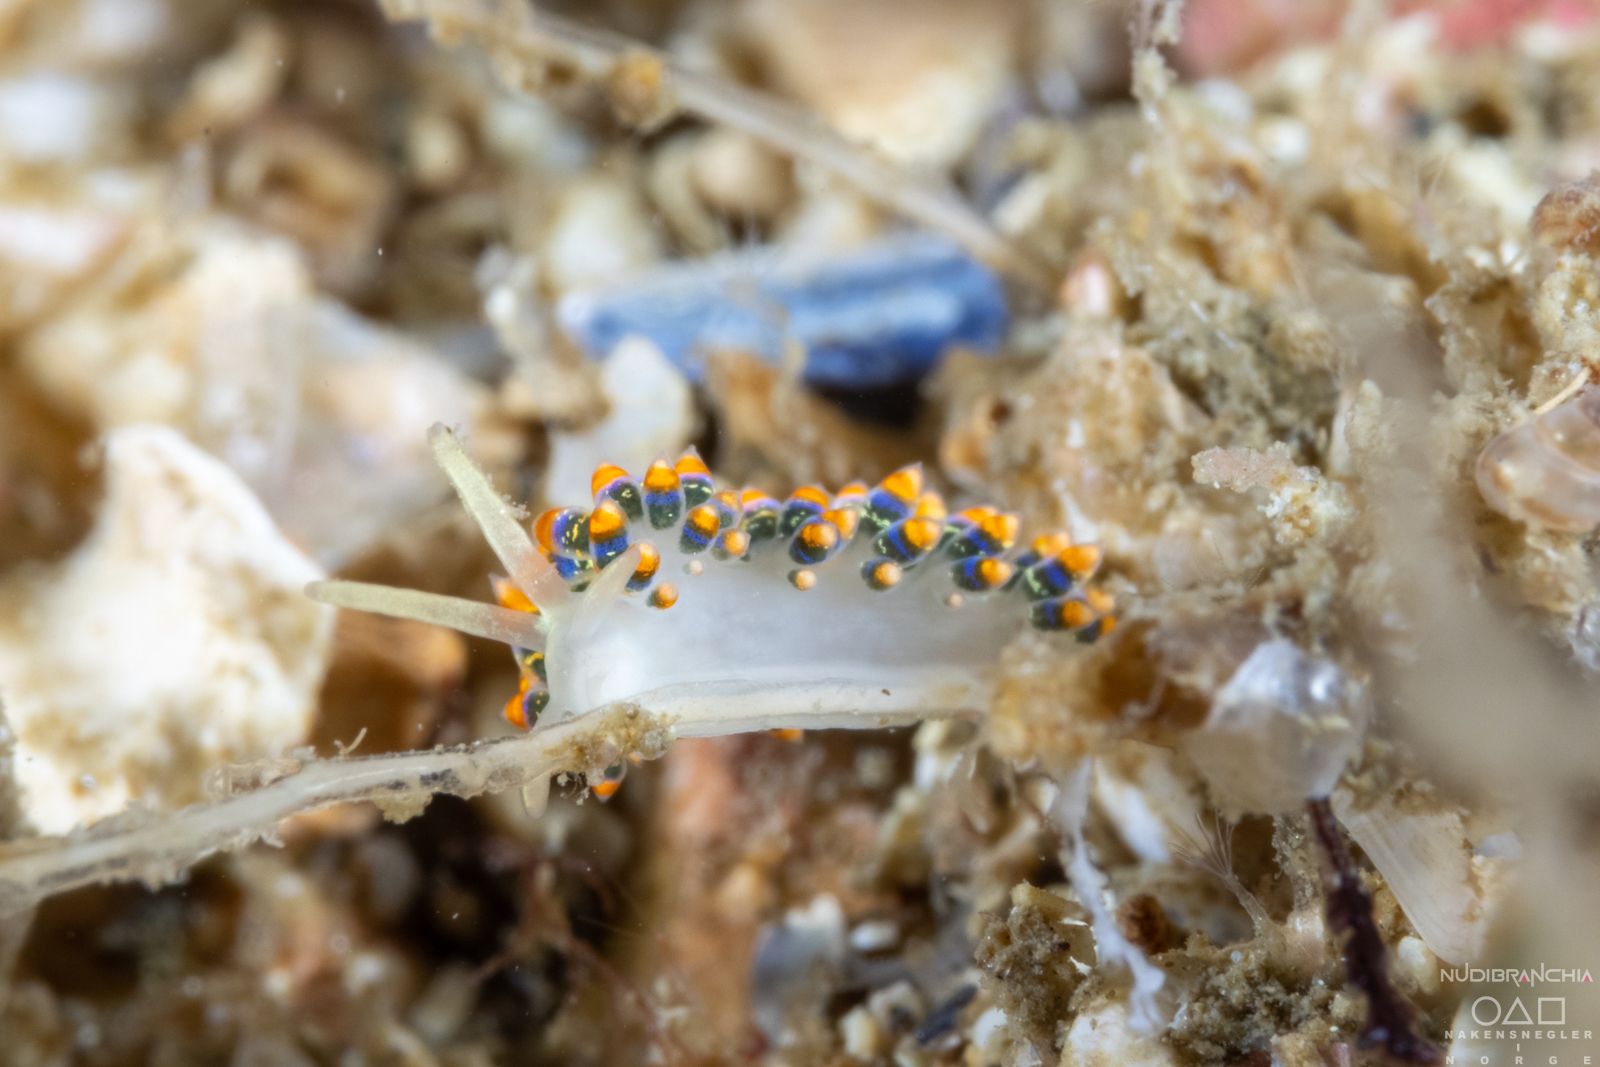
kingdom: Animalia
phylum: Mollusca
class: Gastropoda
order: Nudibranchia
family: Trinchesiidae
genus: Trinchesia
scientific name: Trinchesia cuanensis
